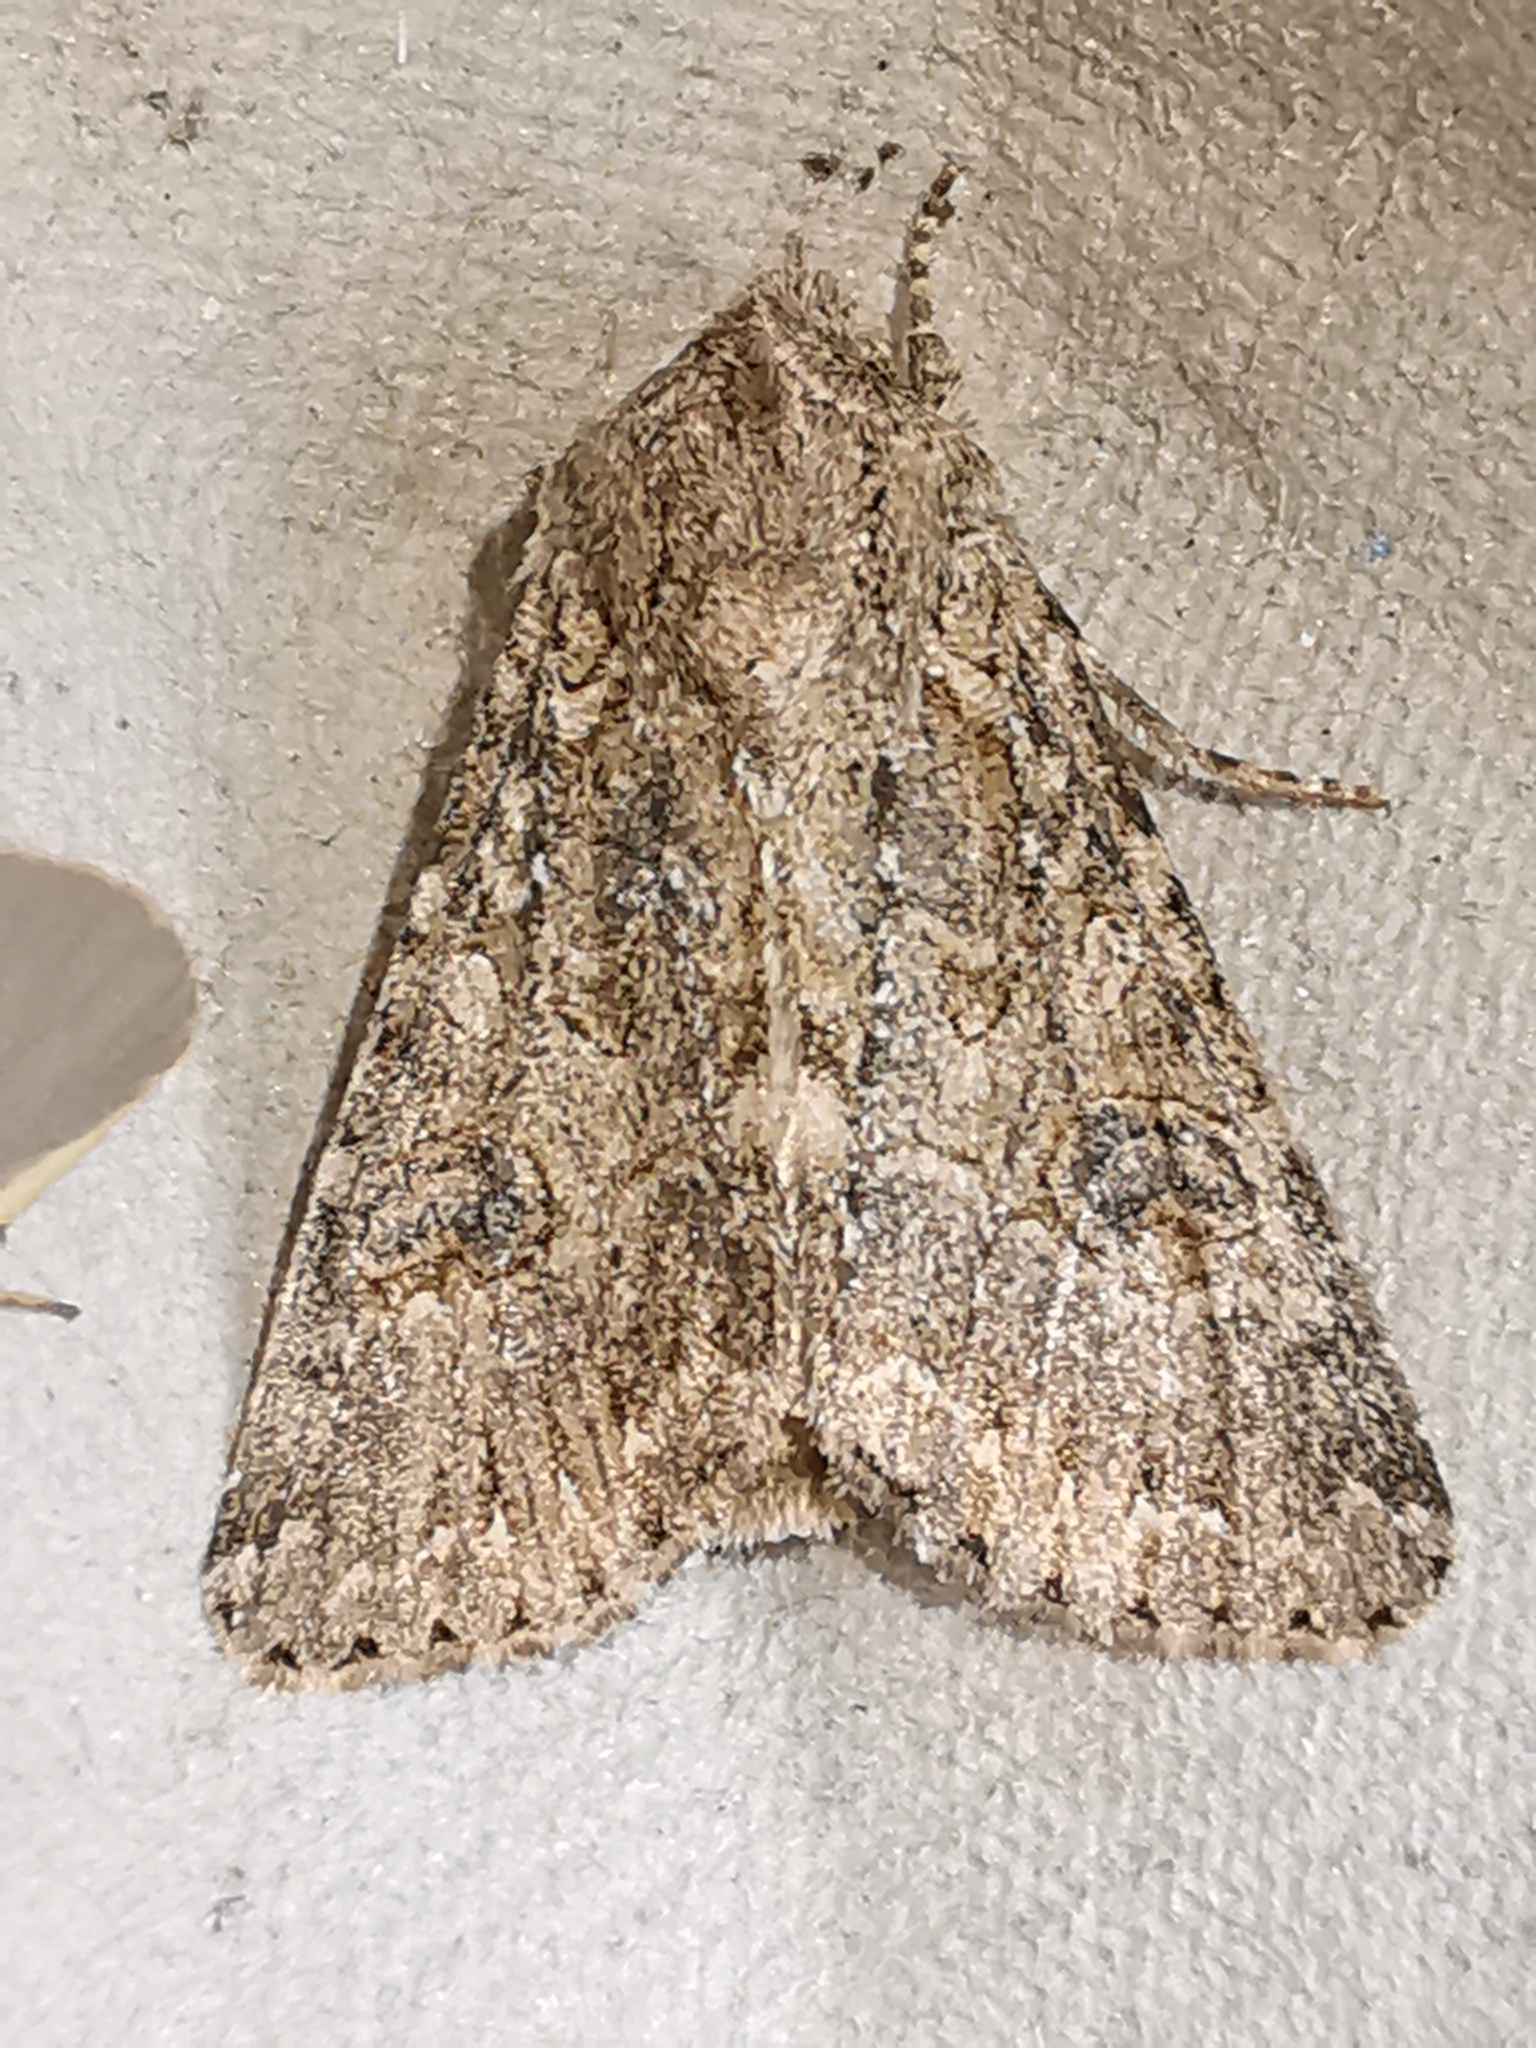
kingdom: Animalia
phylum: Arthropoda
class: Insecta
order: Lepidoptera
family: Noctuidae
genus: Anarta
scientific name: Anarta trifolii
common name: Clover cutworm moth
